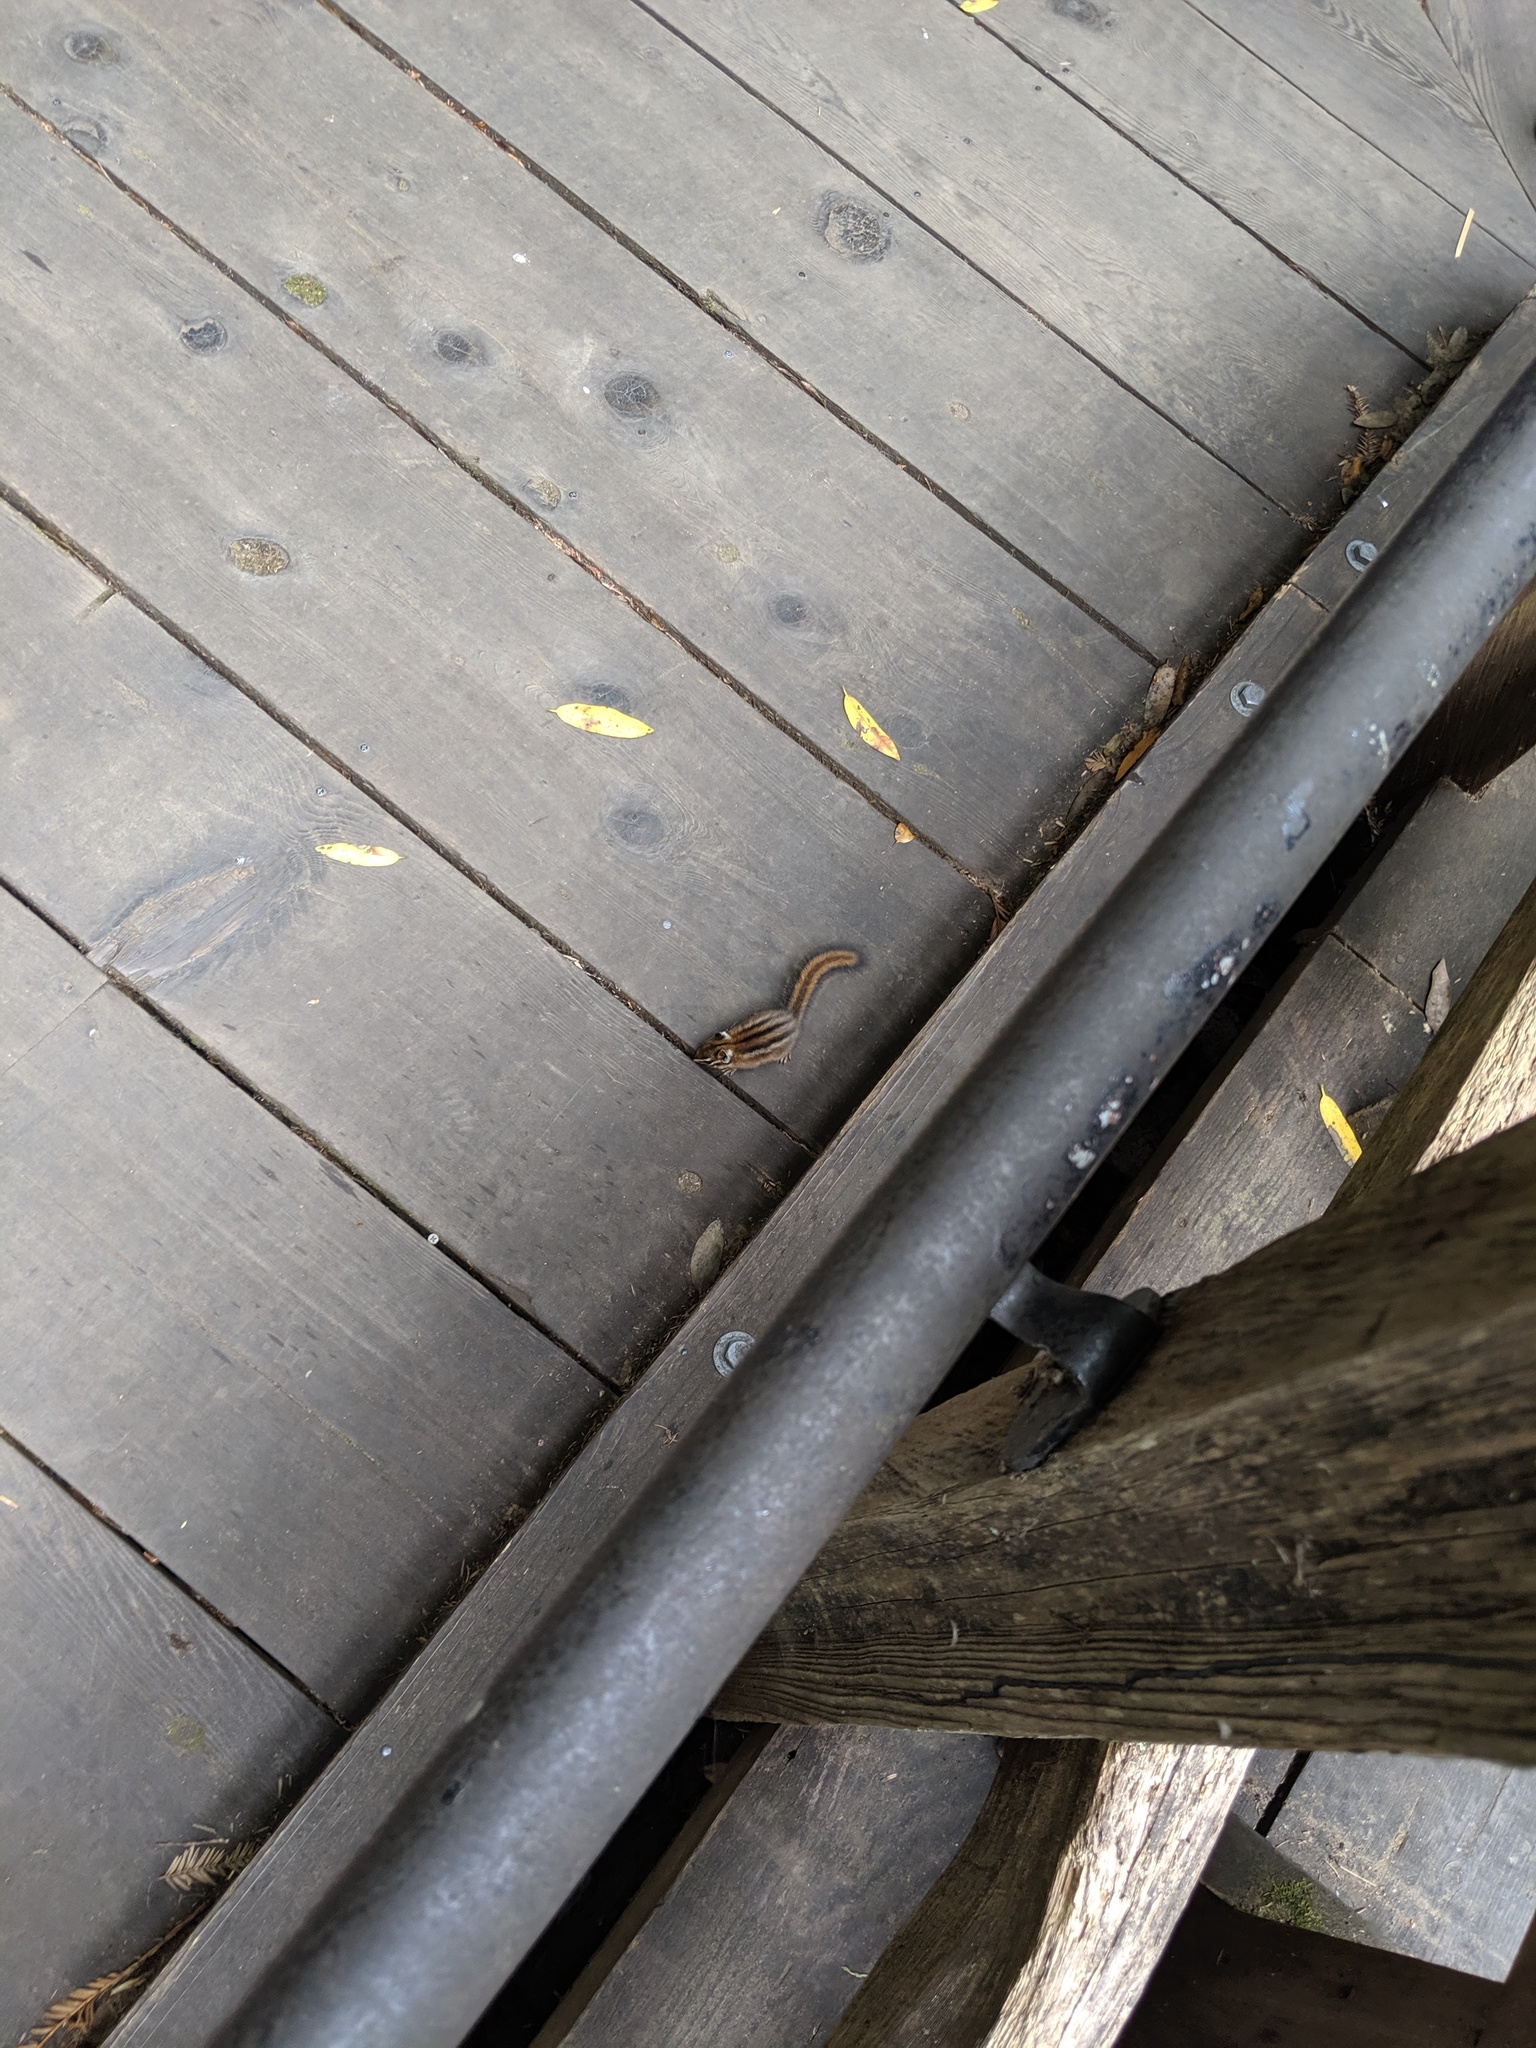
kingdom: Animalia
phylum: Chordata
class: Mammalia
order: Rodentia
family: Sciuridae
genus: Tamias
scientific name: Tamias sonomae
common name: Sonoma chipmunk
